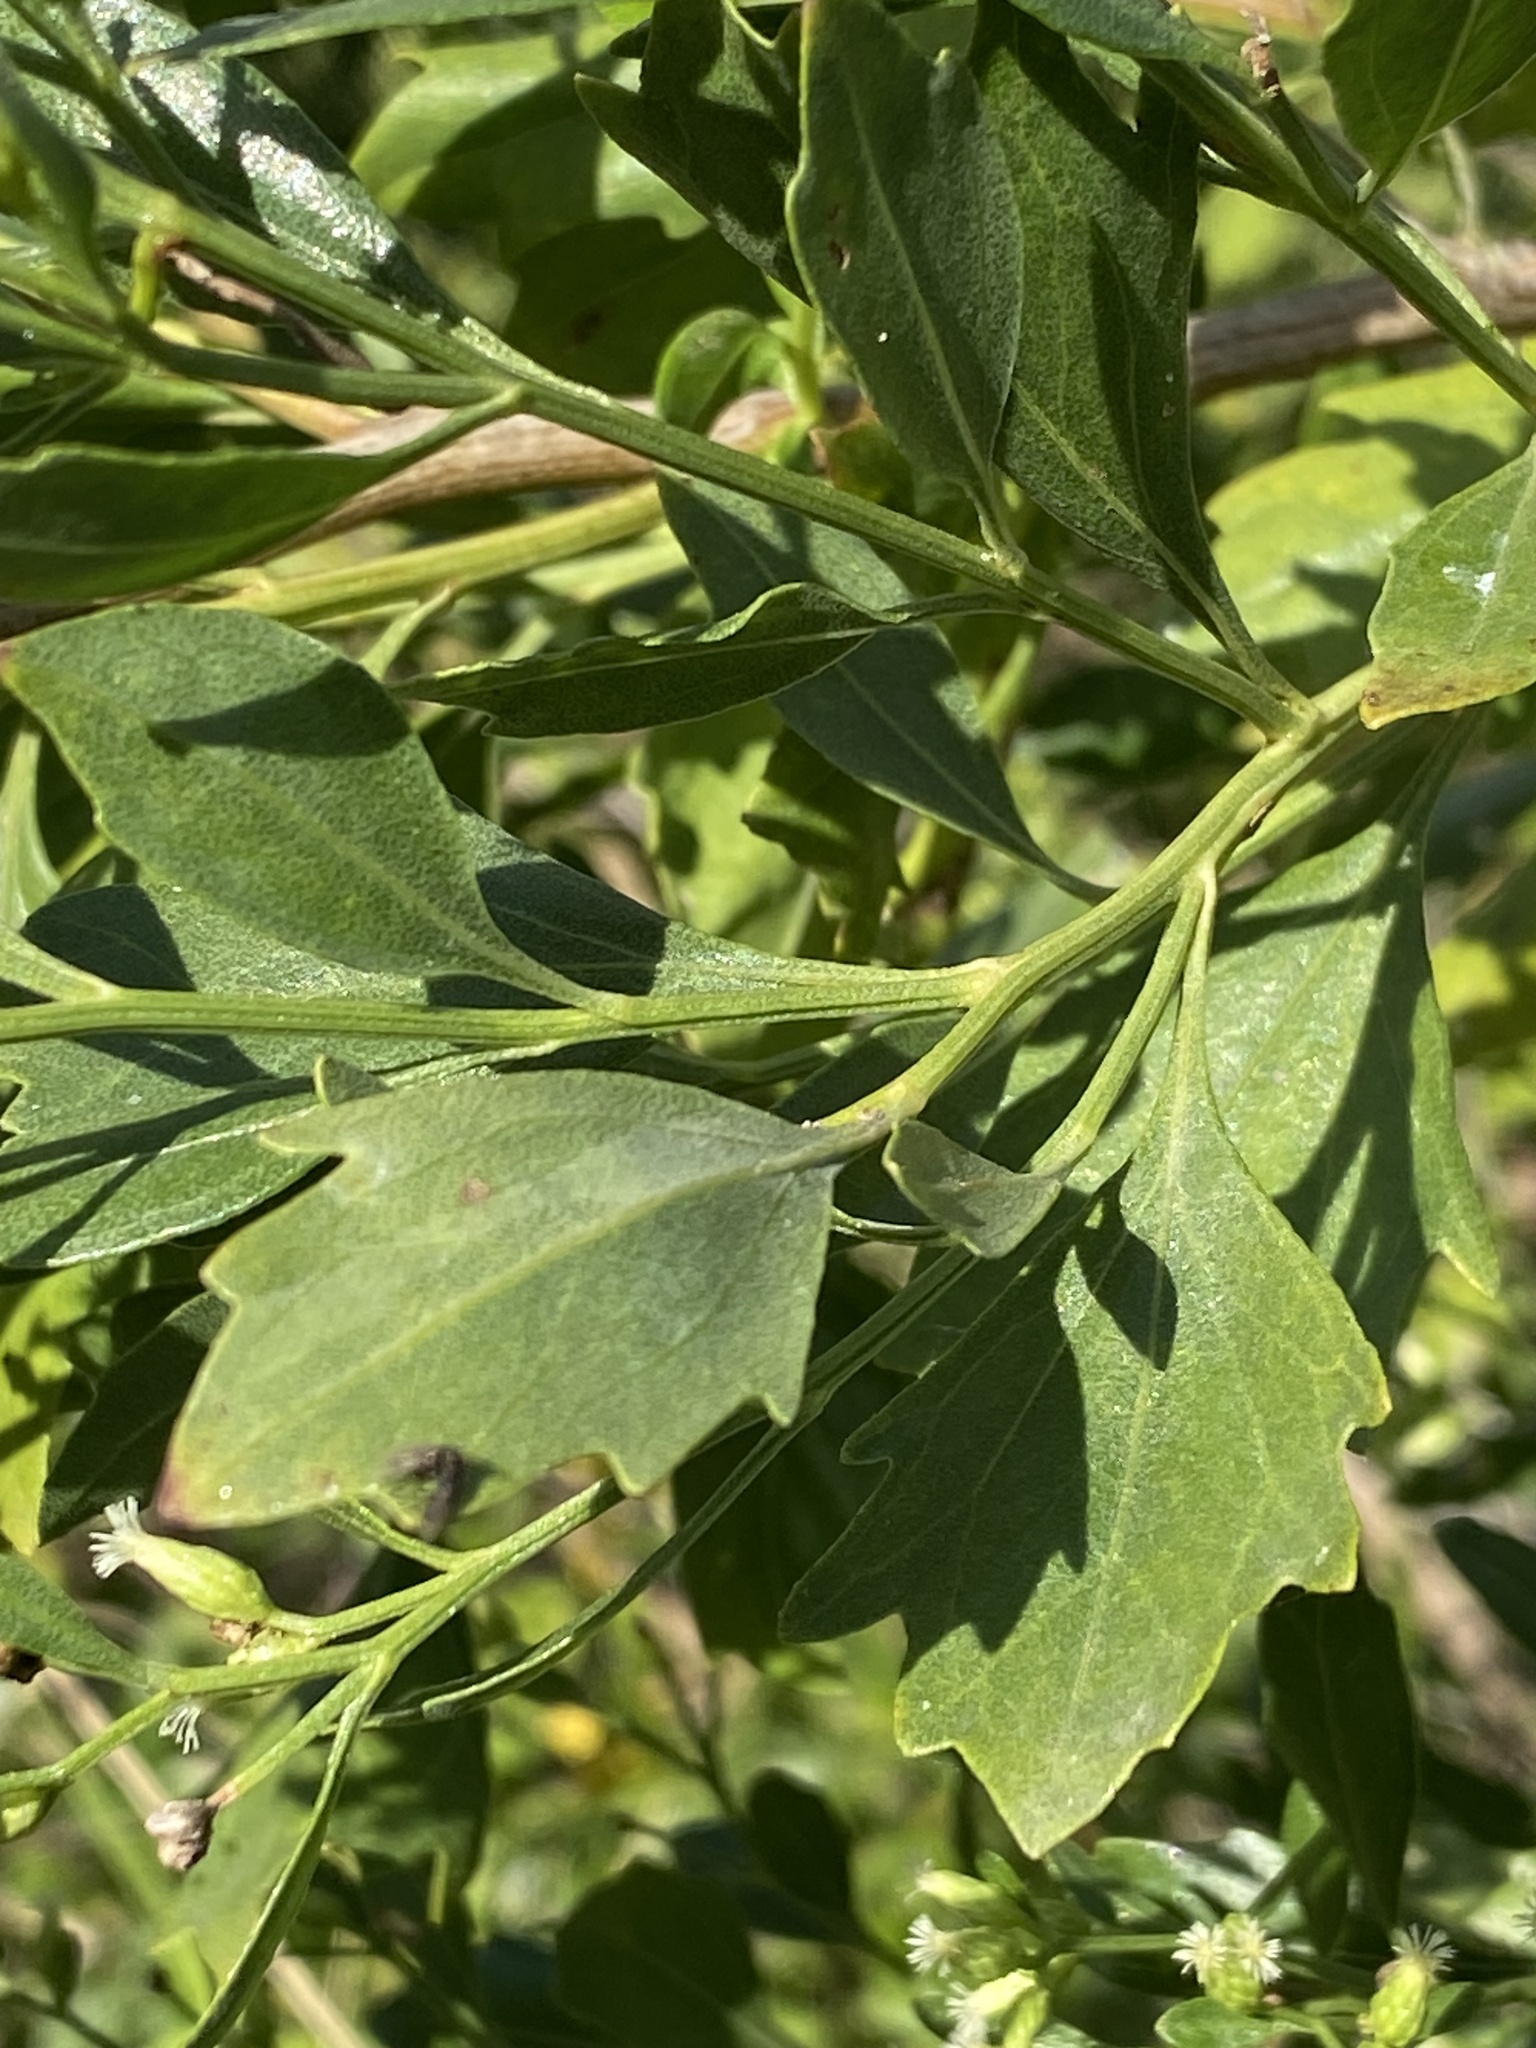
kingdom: Plantae
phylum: Tracheophyta
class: Magnoliopsida
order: Asterales
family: Asteraceae
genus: Baccharis
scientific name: Baccharis halimifolia
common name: Eastern baccharis
